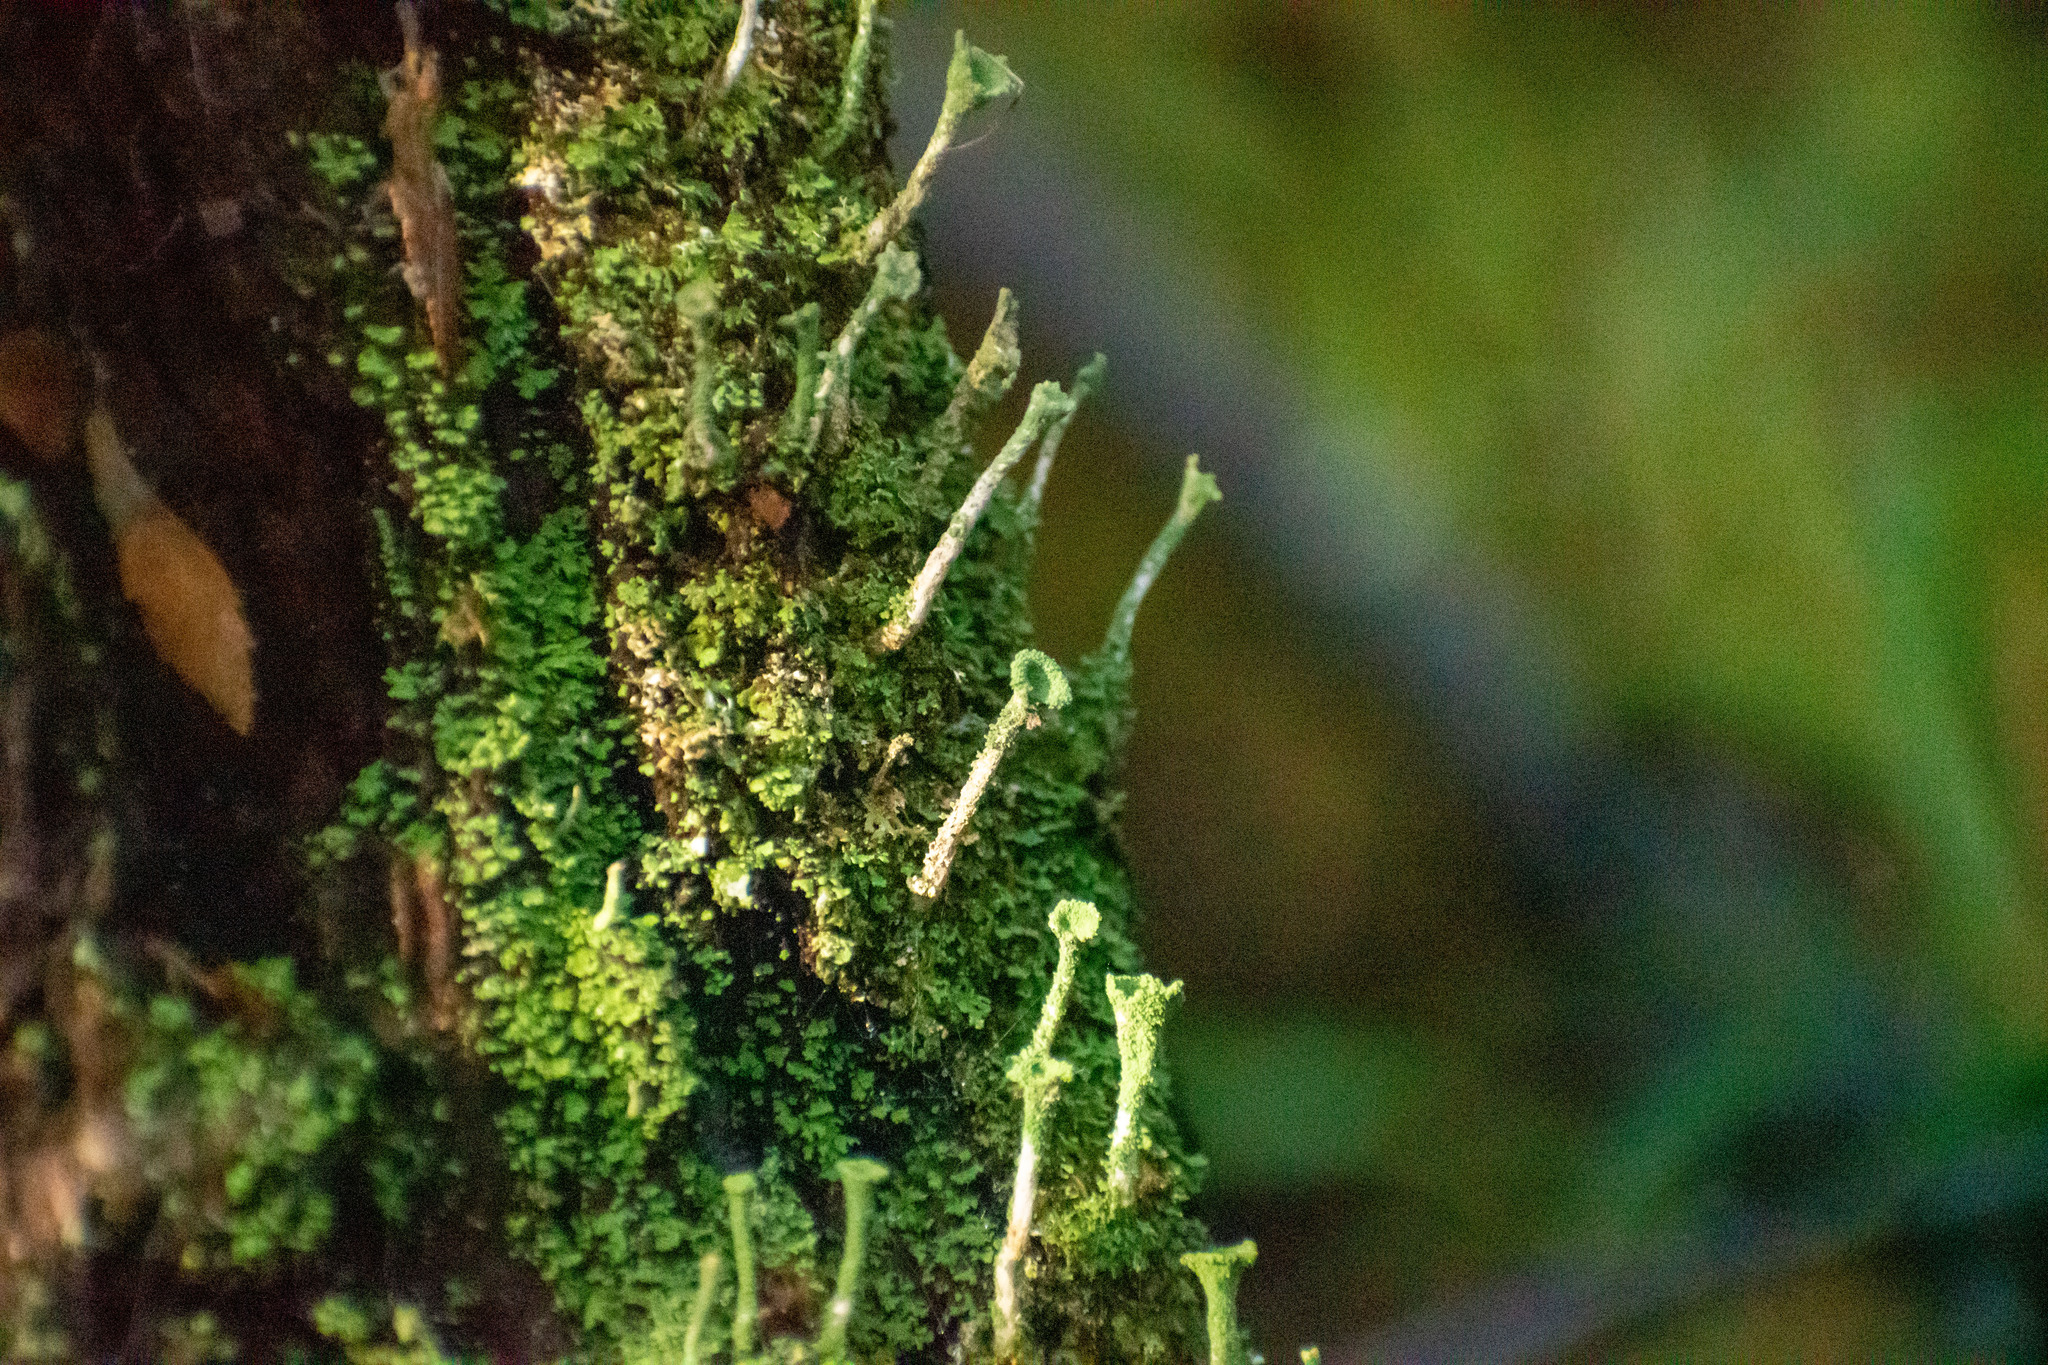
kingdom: Fungi
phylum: Ascomycota
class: Lecanoromycetes
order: Lecanorales
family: Cladoniaceae
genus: Cladonia
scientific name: Cladonia fimbriata
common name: Powdered trumpet lichen
